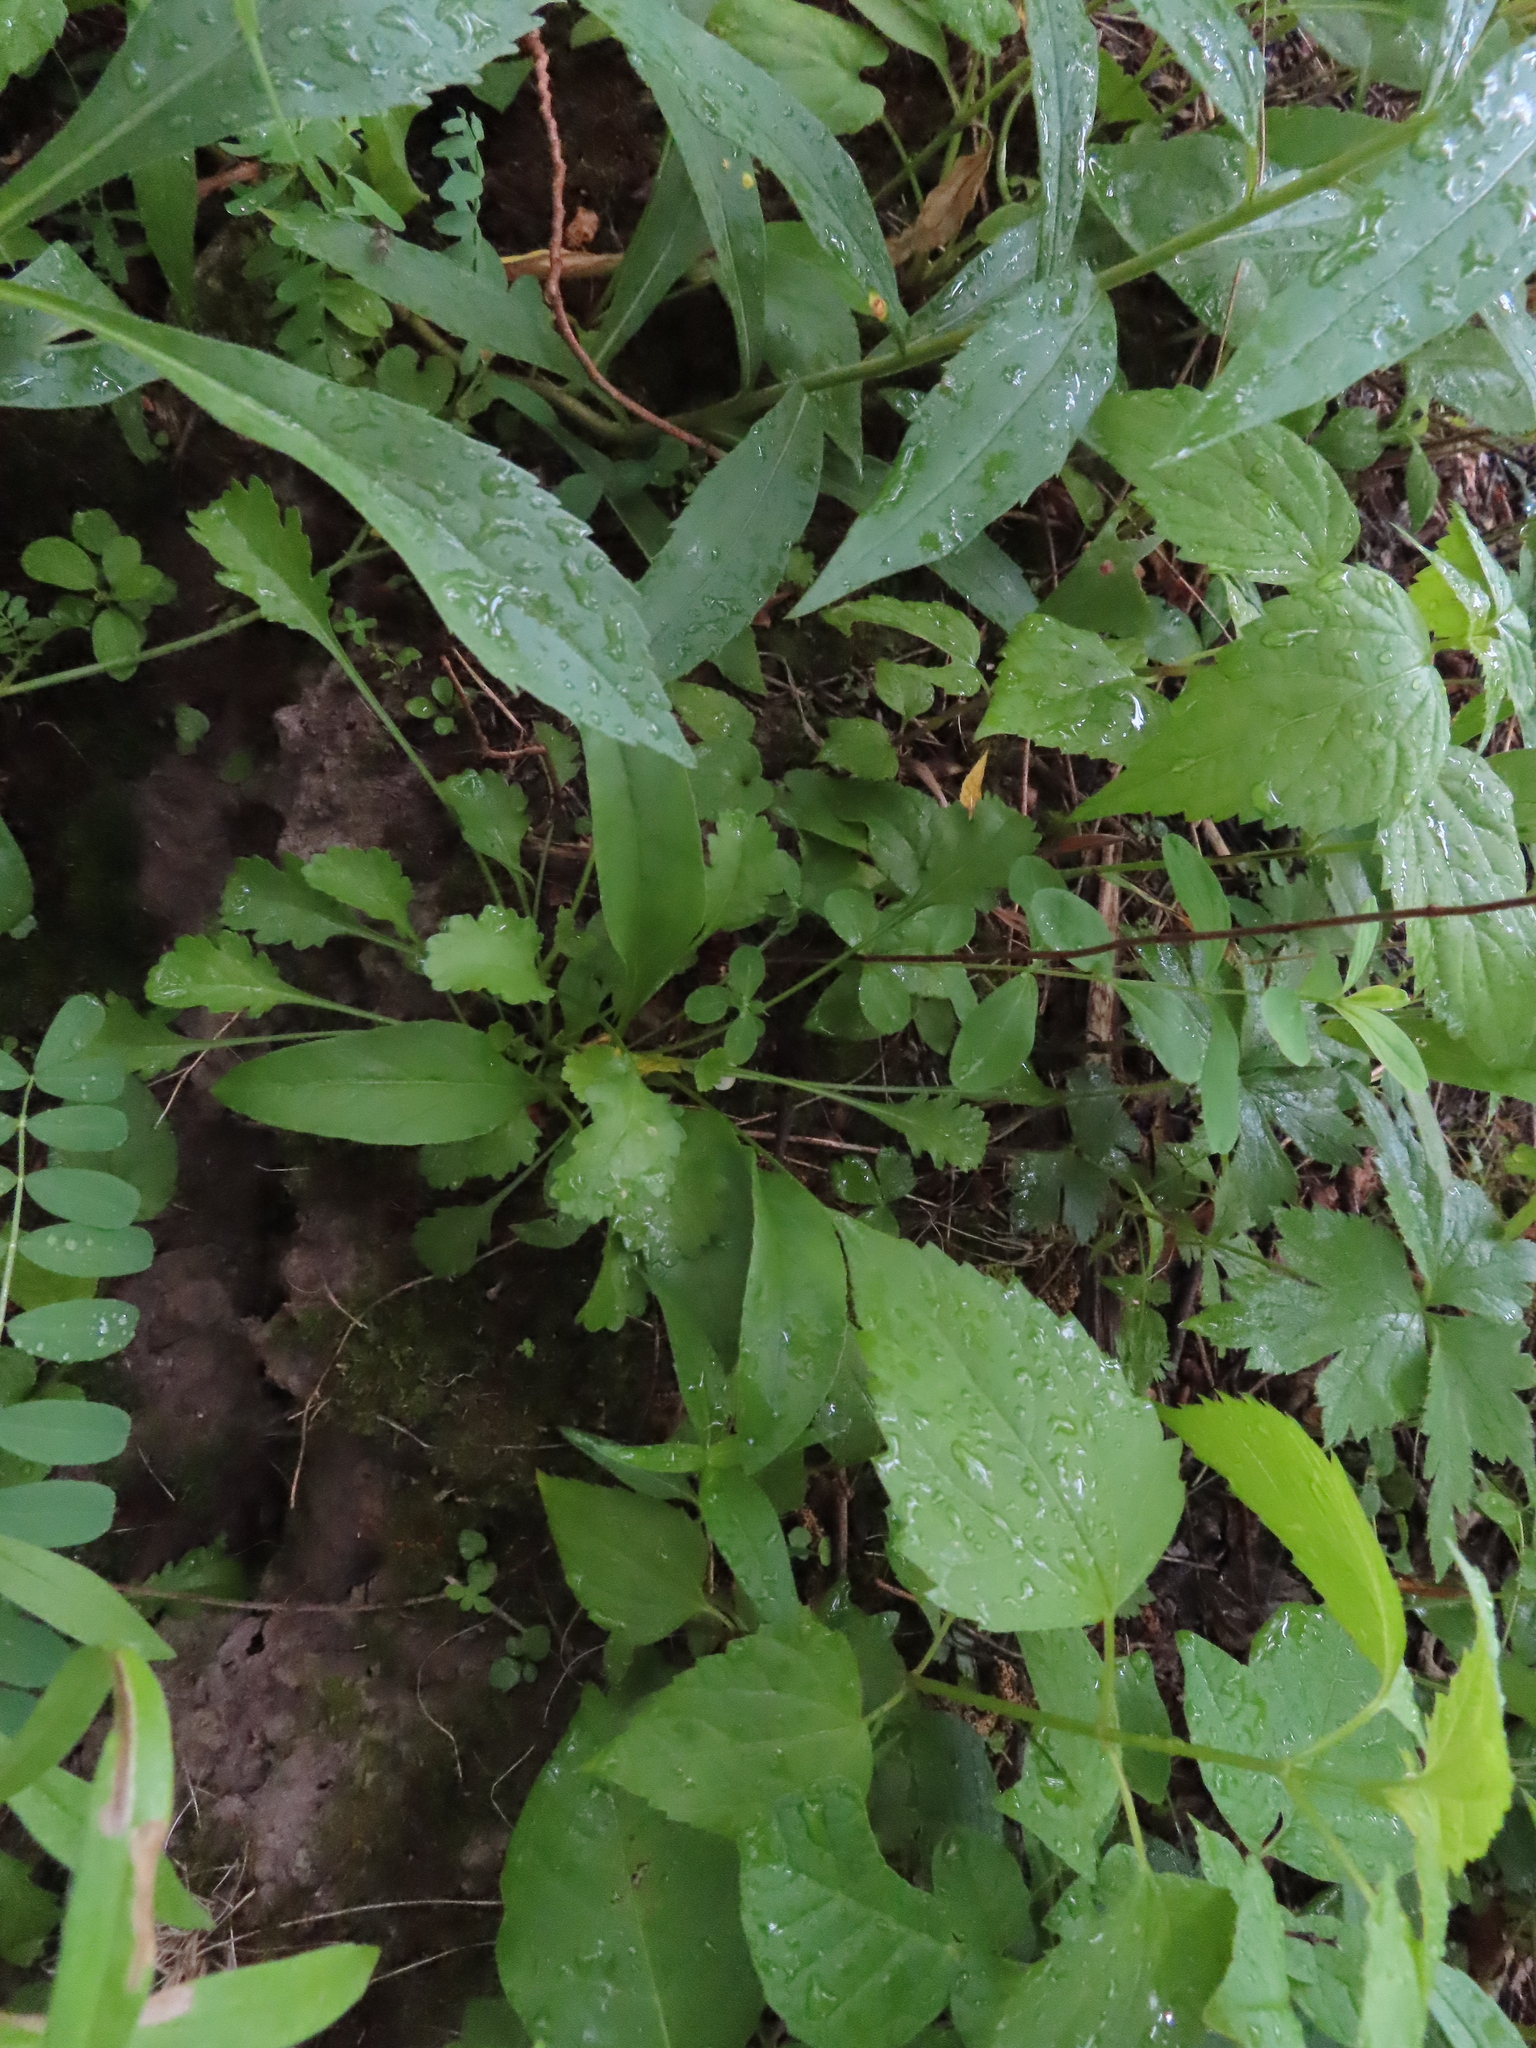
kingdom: Plantae
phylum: Tracheophyta
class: Magnoliopsida
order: Asterales
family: Asteraceae
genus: Leucanthemum
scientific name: Leucanthemum vulgare
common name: Oxeye daisy
